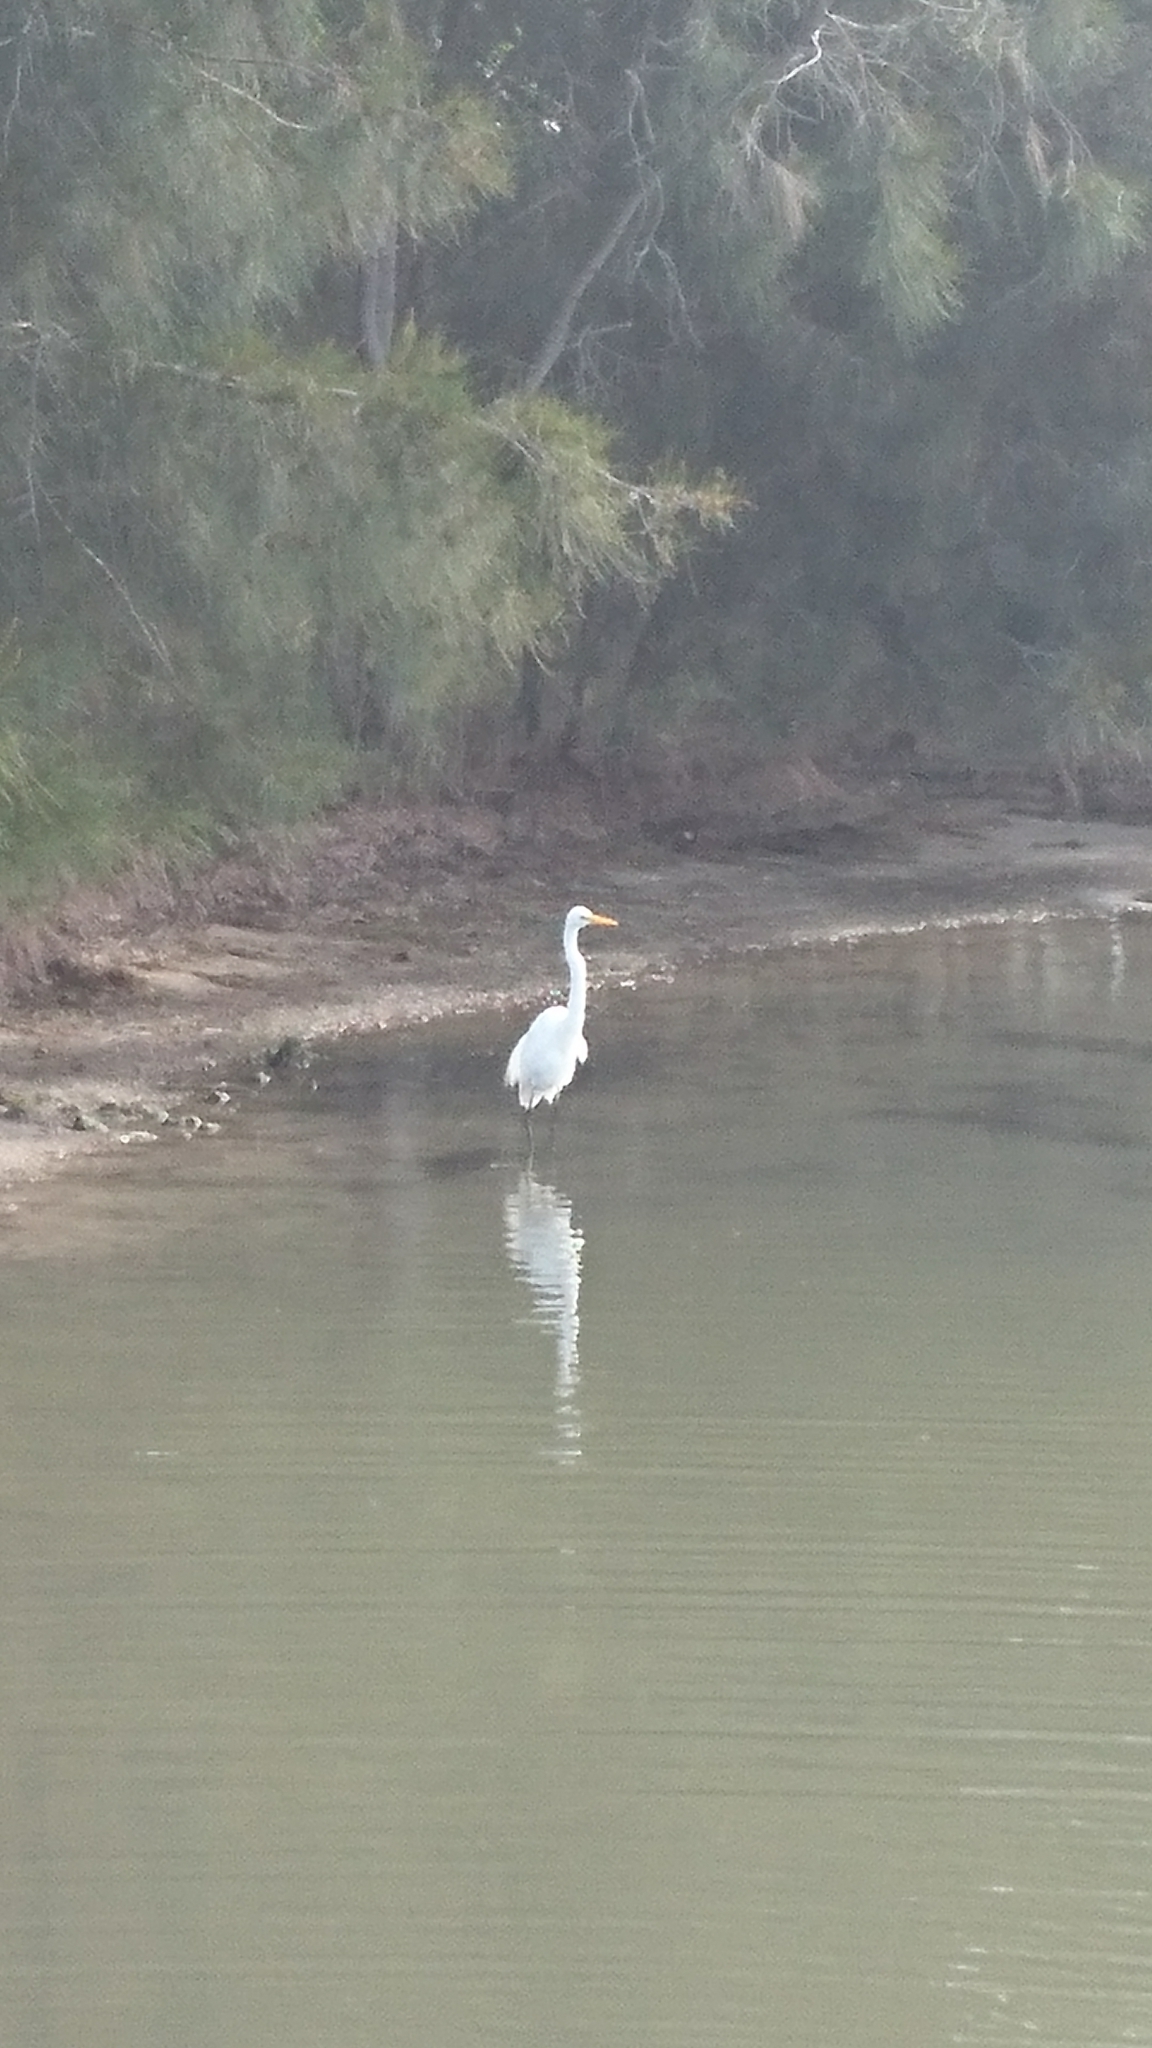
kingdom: Animalia
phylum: Chordata
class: Aves
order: Pelecaniformes
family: Ardeidae
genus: Ardea
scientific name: Ardea alba
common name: Great egret
